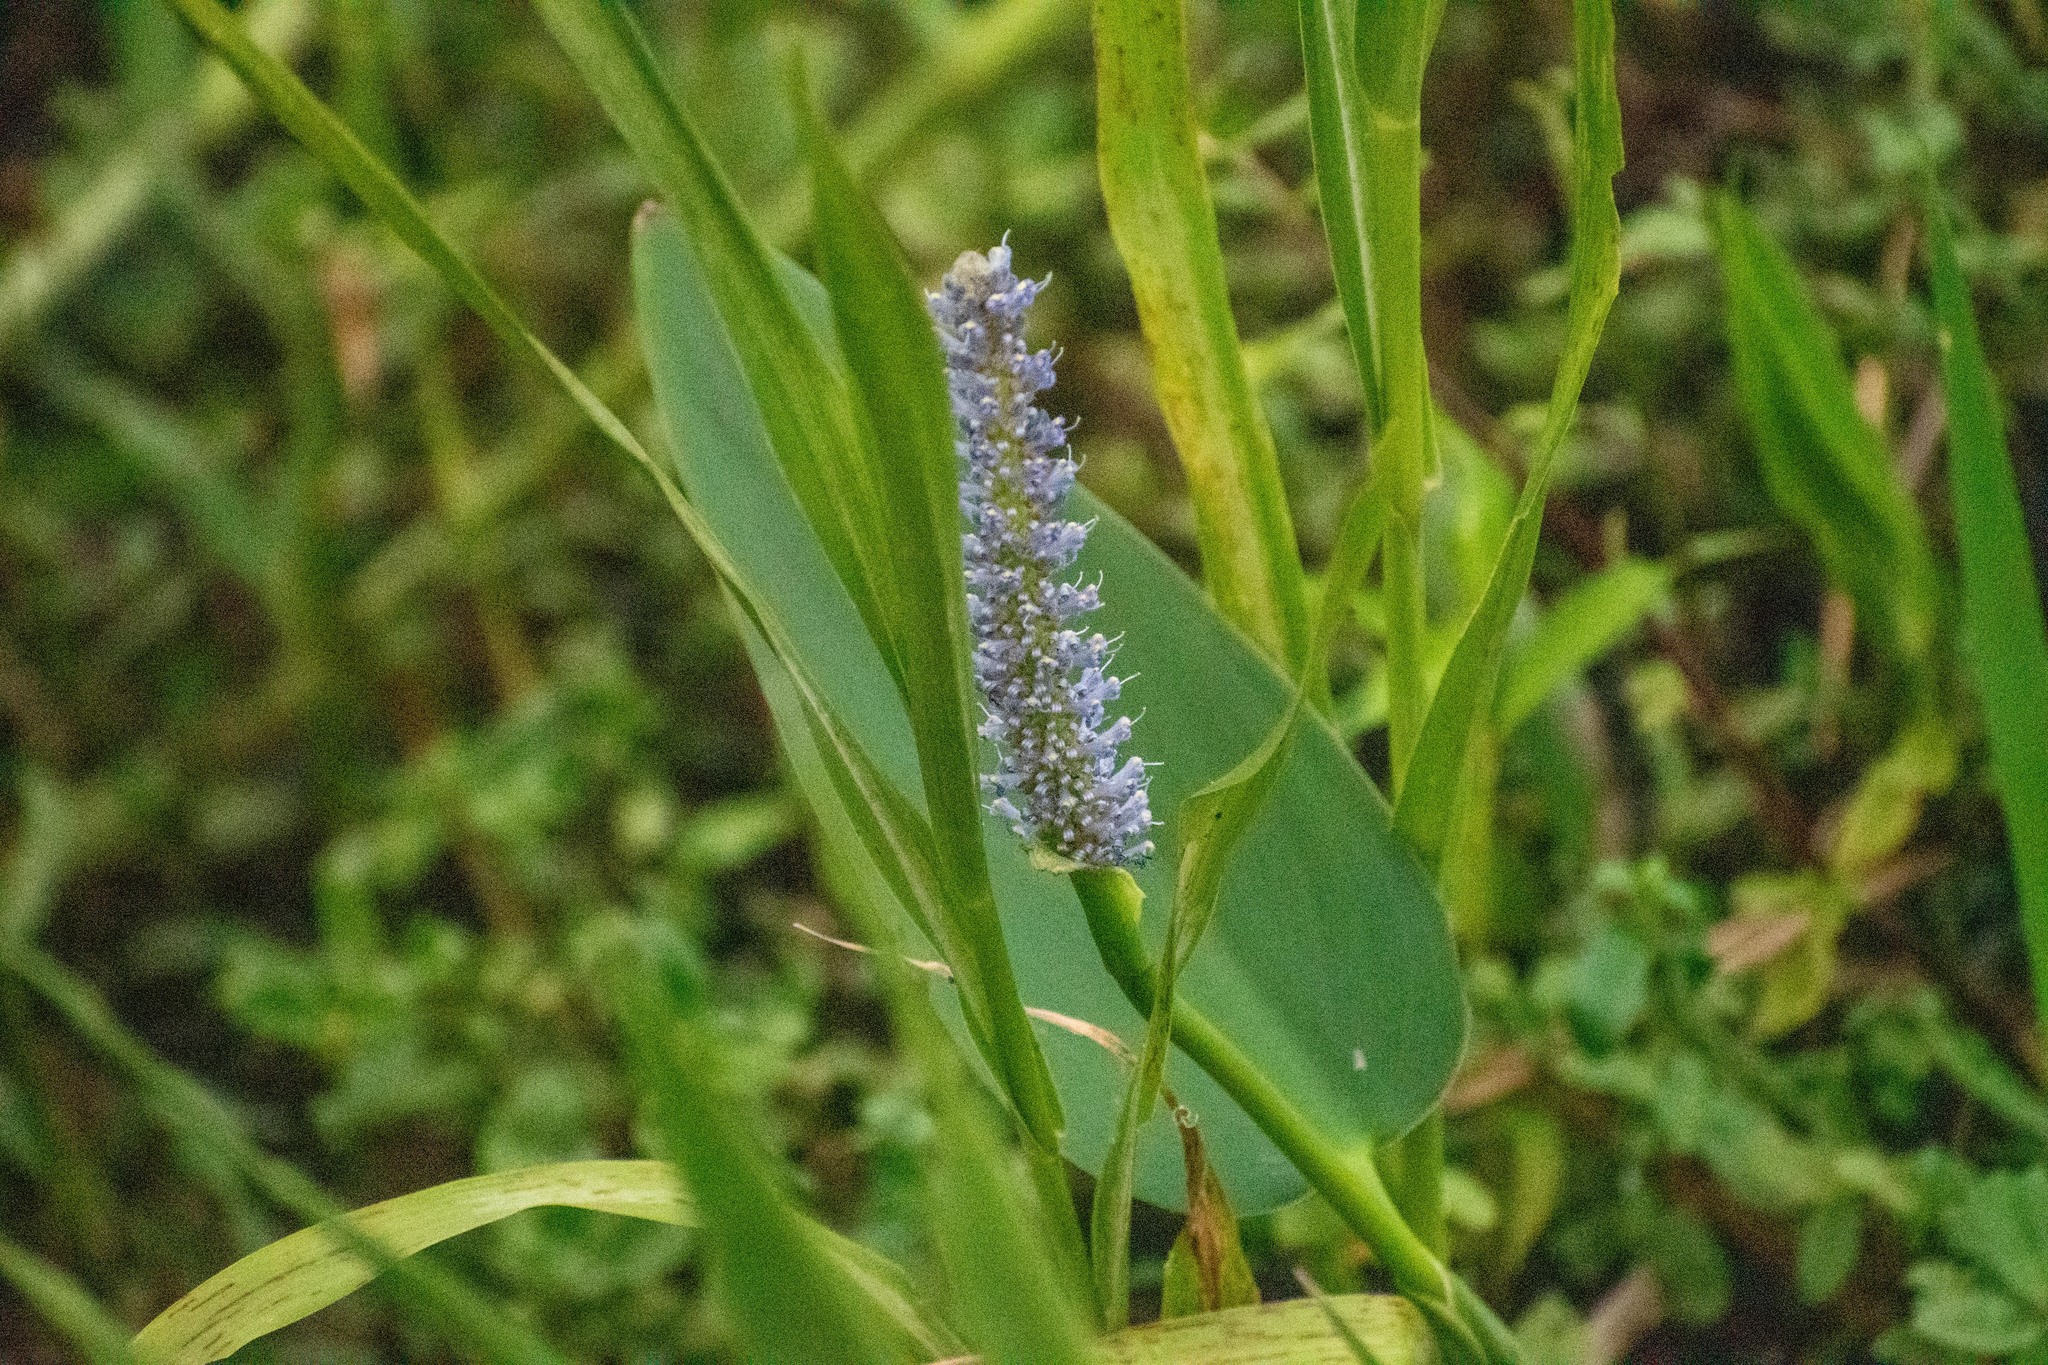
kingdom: Plantae
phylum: Tracheophyta
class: Liliopsida
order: Commelinales
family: Pontederiaceae
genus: Pontederia
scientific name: Pontederia cordata
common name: Pickerelweed
